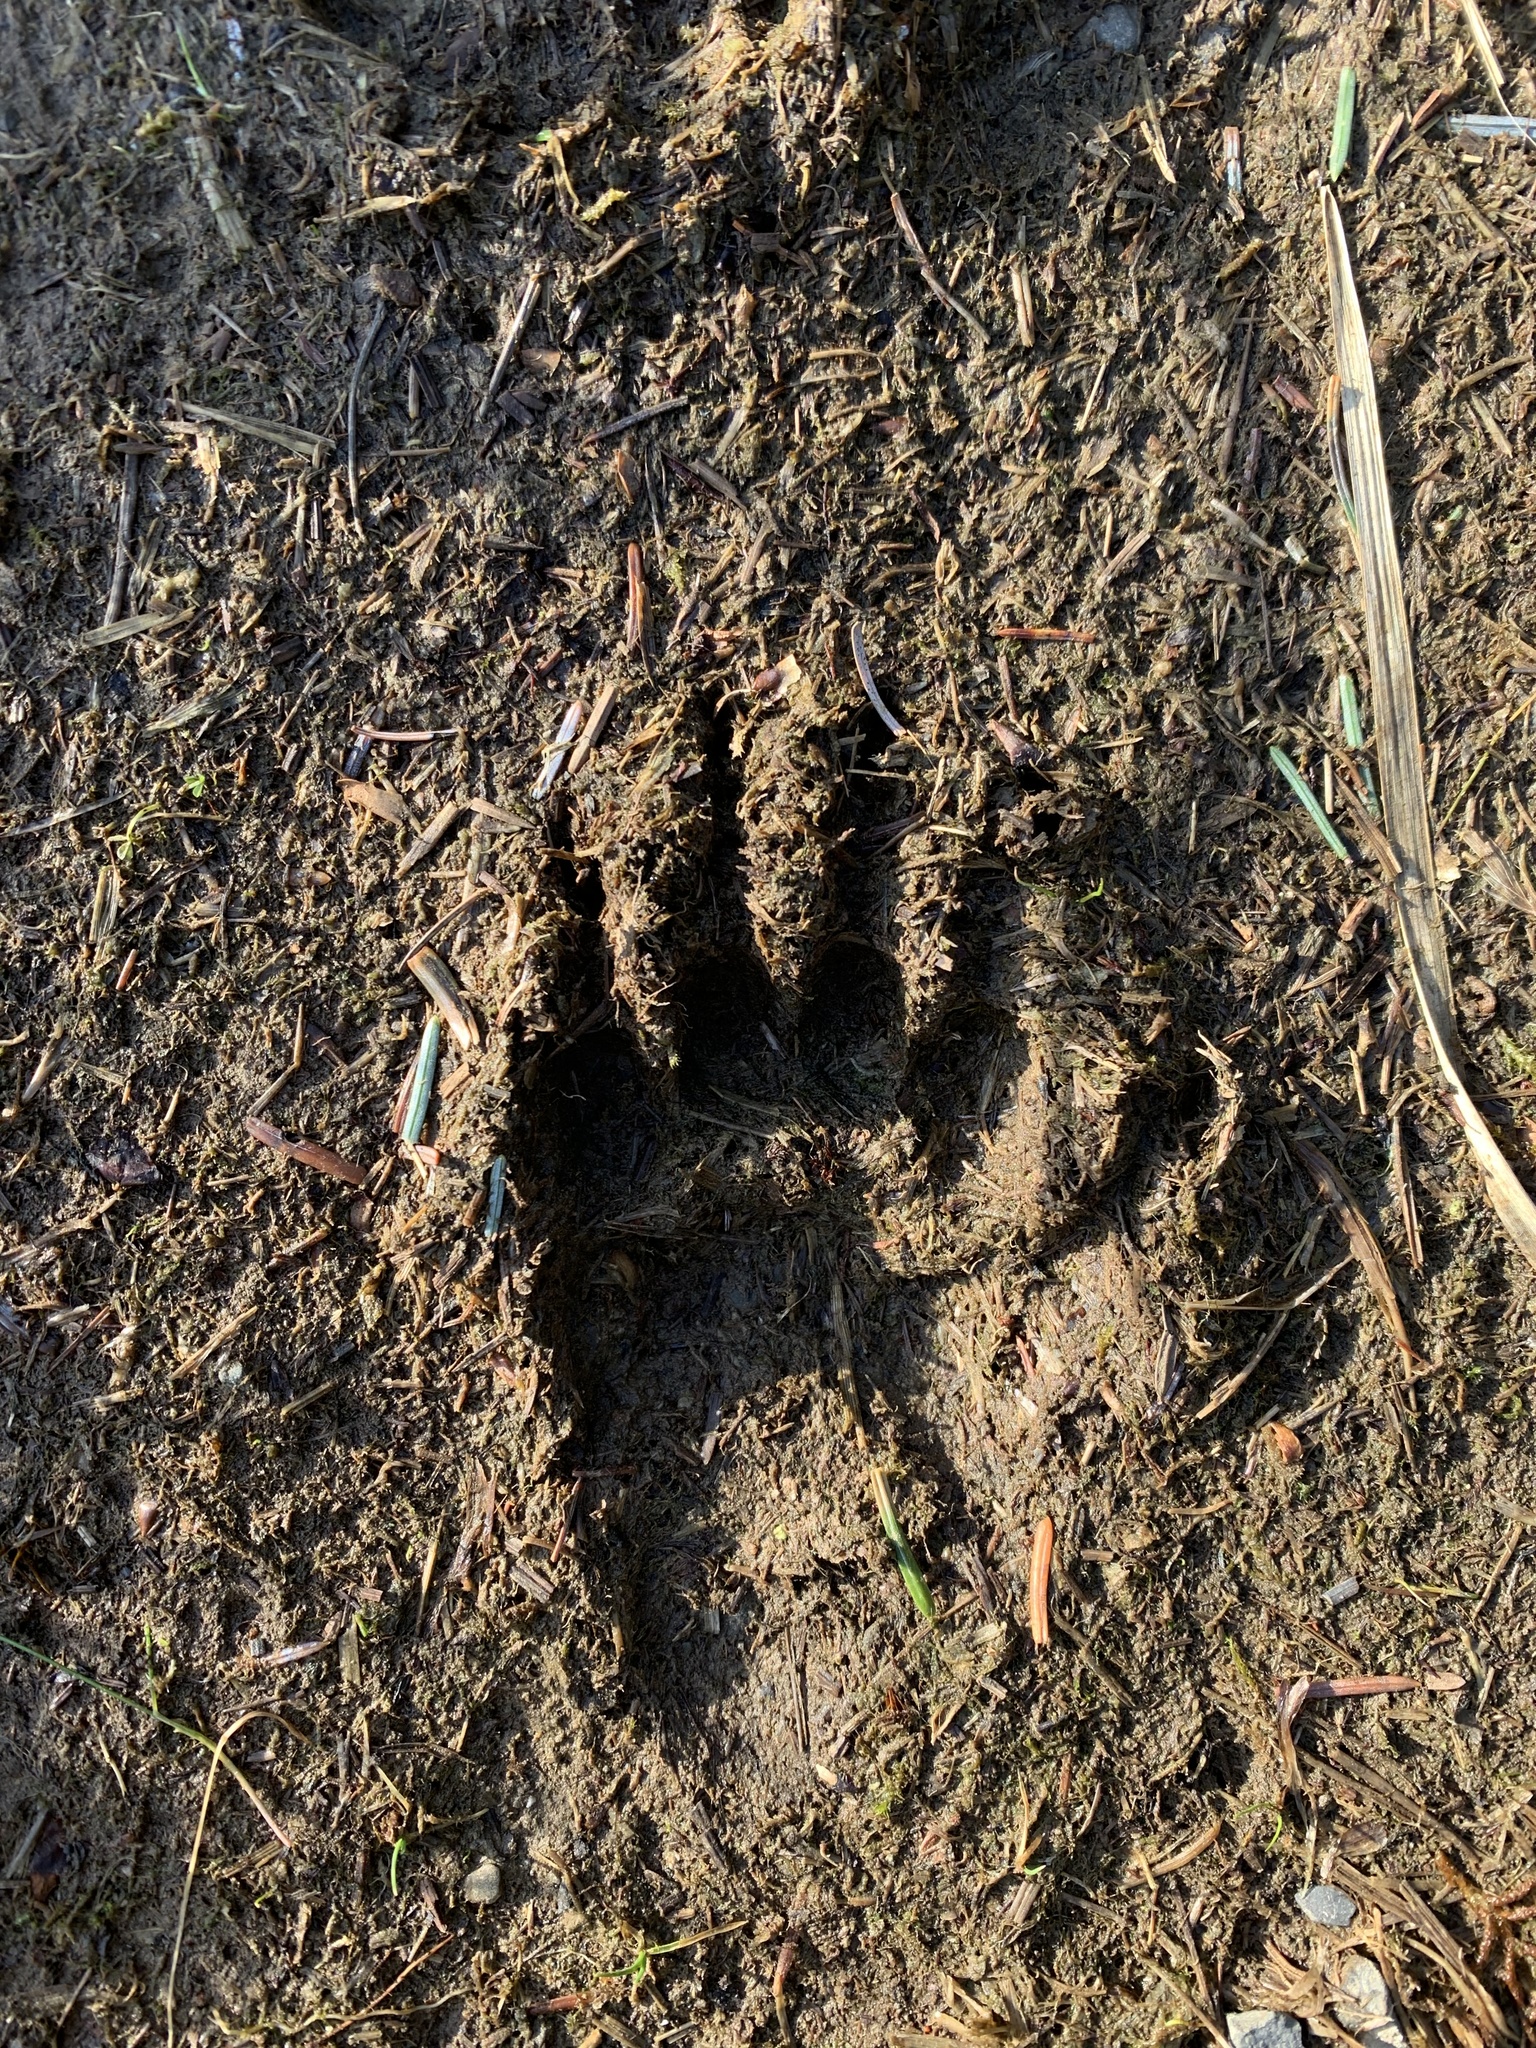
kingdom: Animalia
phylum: Chordata
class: Mammalia
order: Carnivora
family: Mustelidae
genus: Meles
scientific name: Meles meles
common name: Eurasian badger
